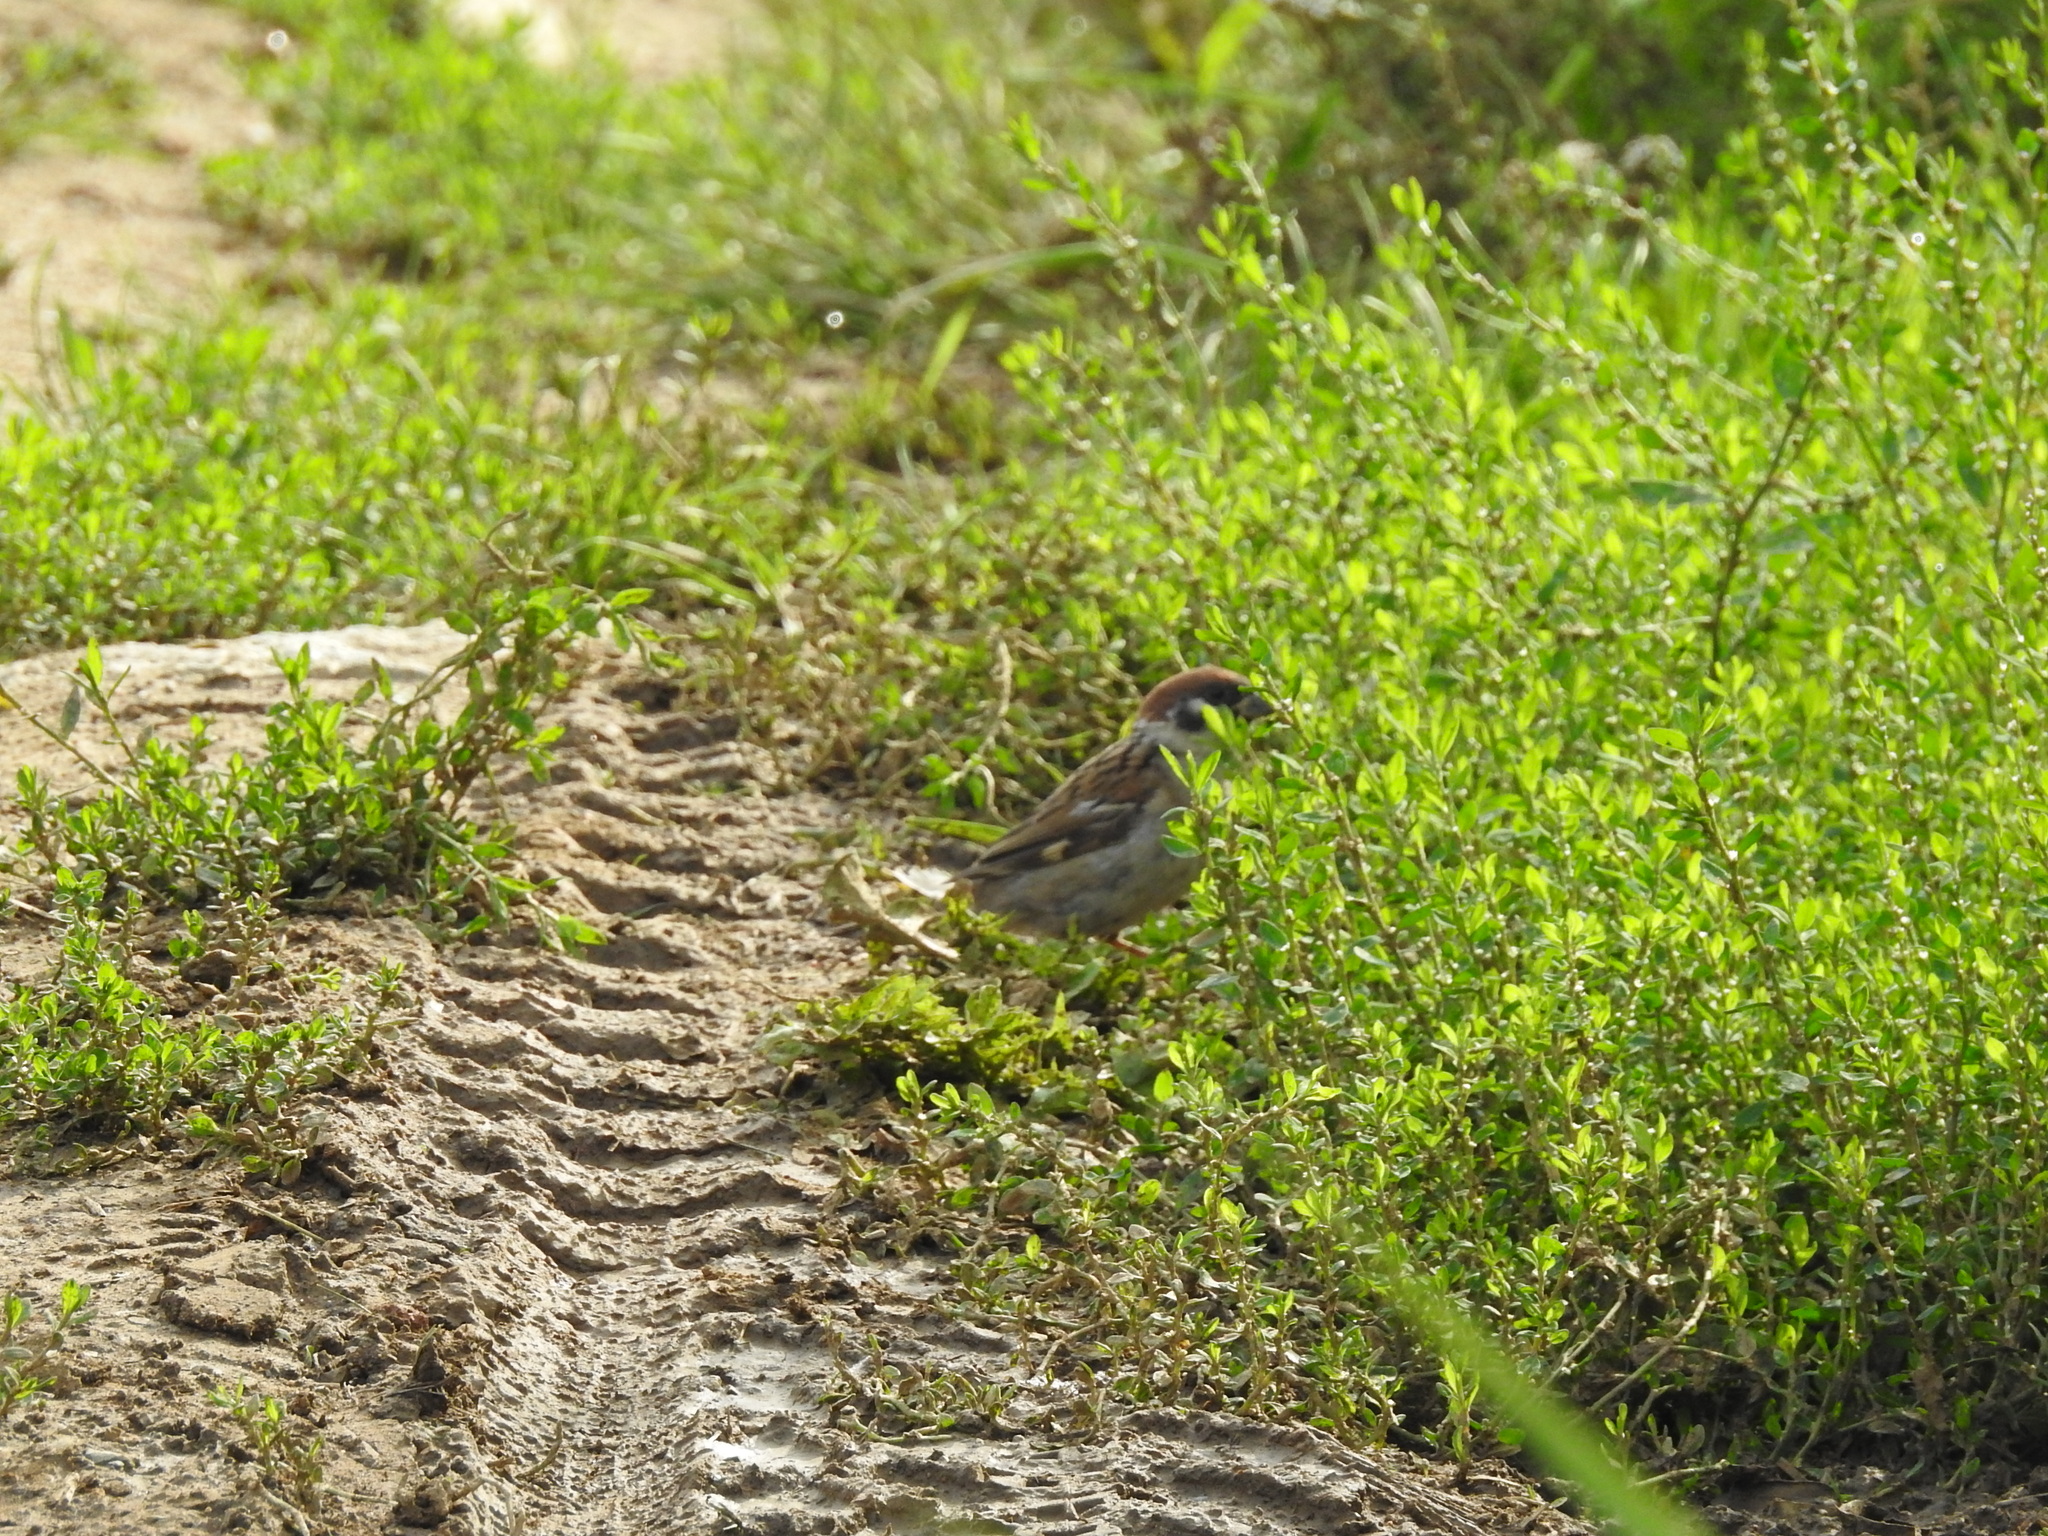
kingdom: Animalia
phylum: Chordata
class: Aves
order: Passeriformes
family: Passeridae
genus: Passer
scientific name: Passer montanus
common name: Eurasian tree sparrow
